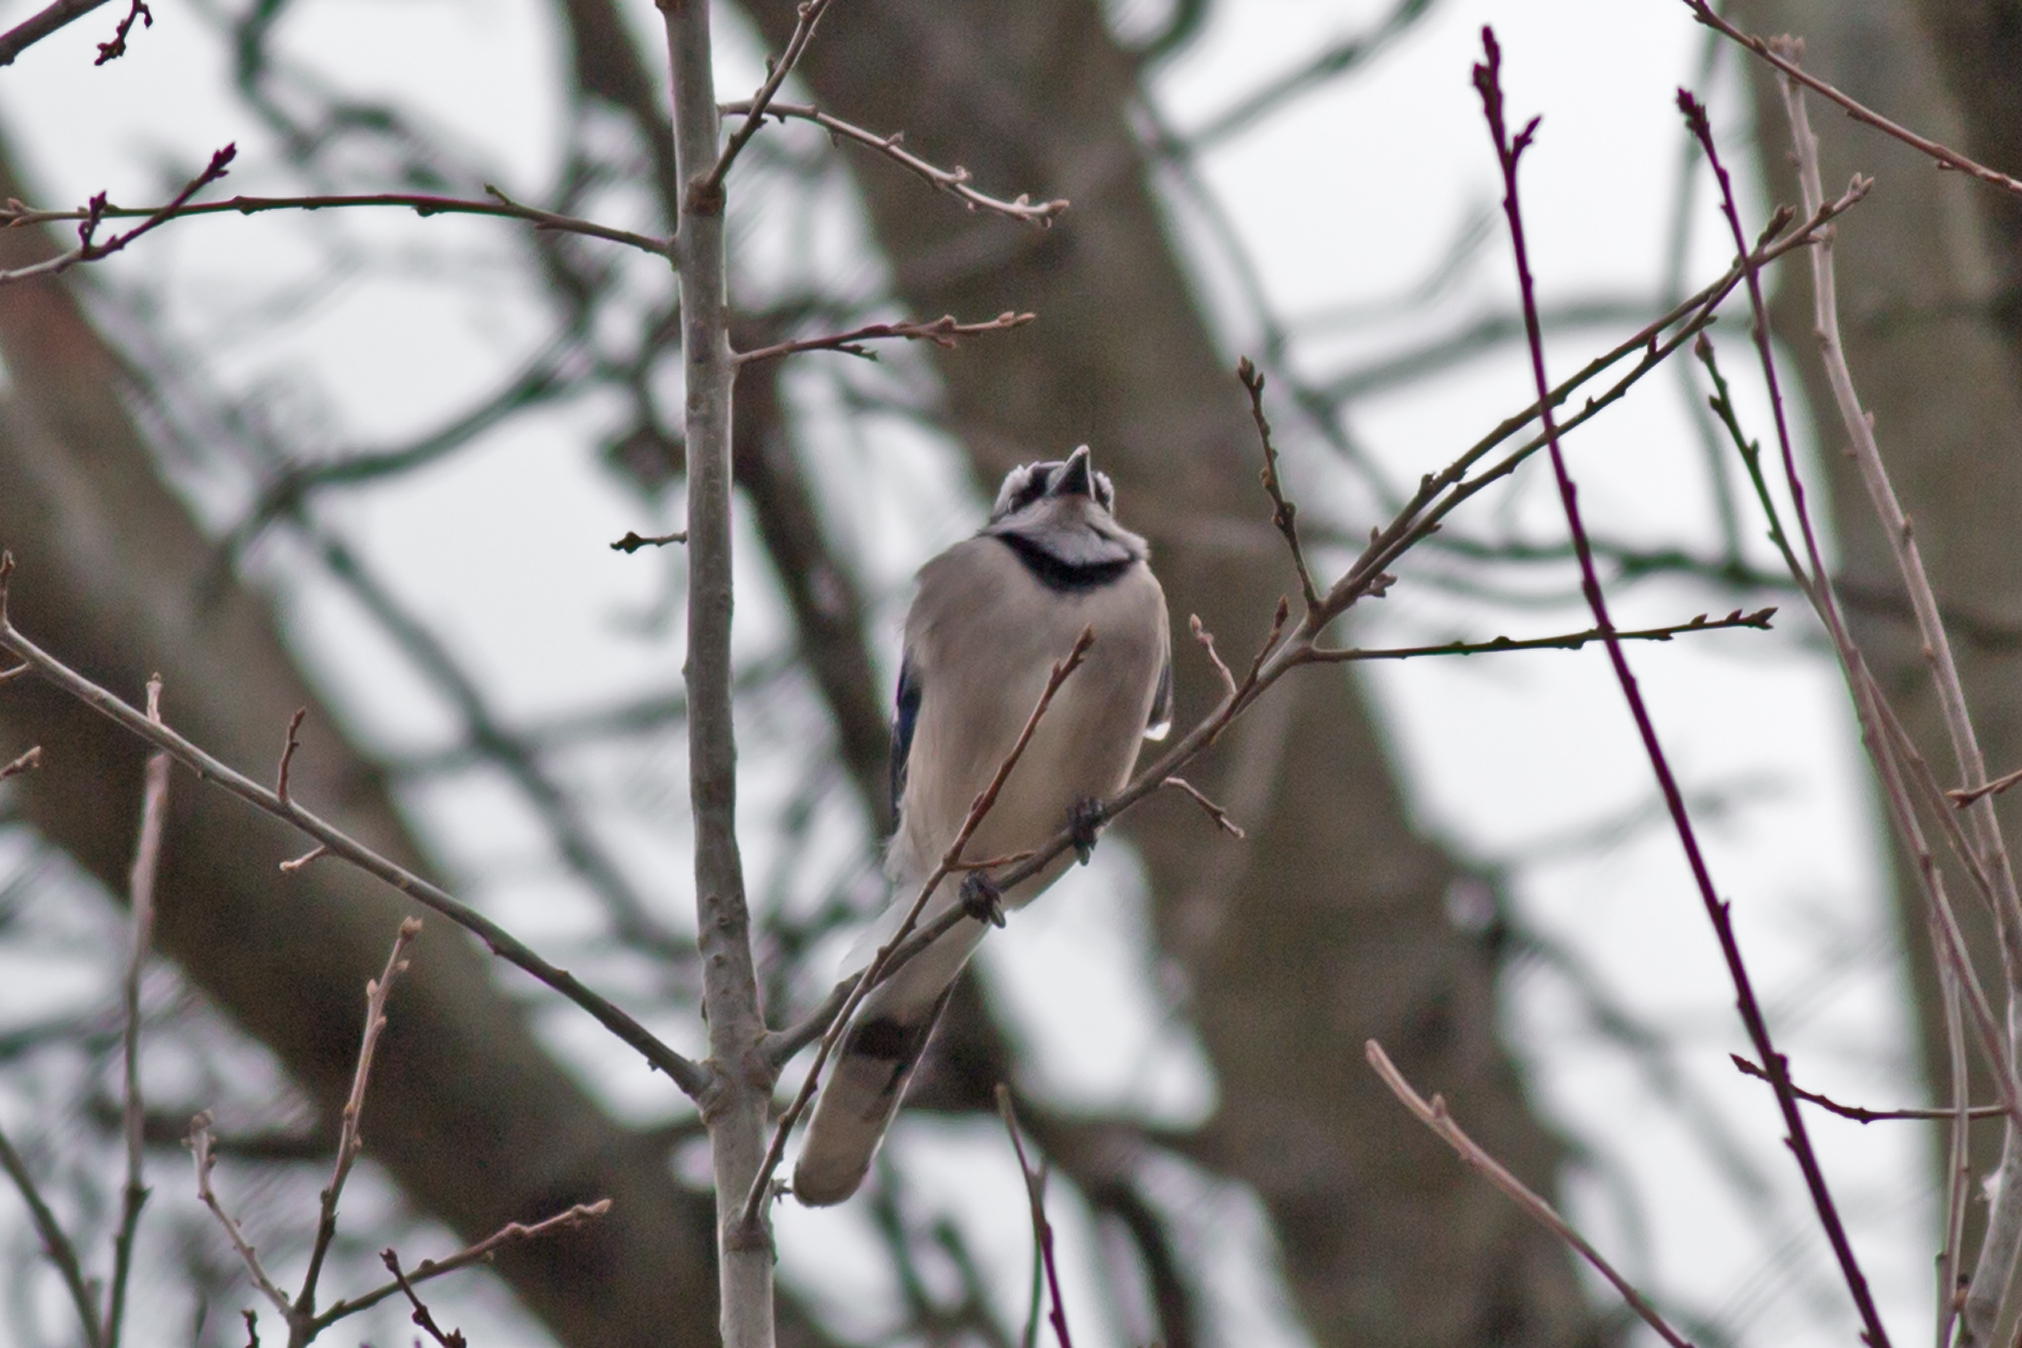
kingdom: Animalia
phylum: Chordata
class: Aves
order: Passeriformes
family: Corvidae
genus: Cyanocitta
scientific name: Cyanocitta cristata
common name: Blue jay
